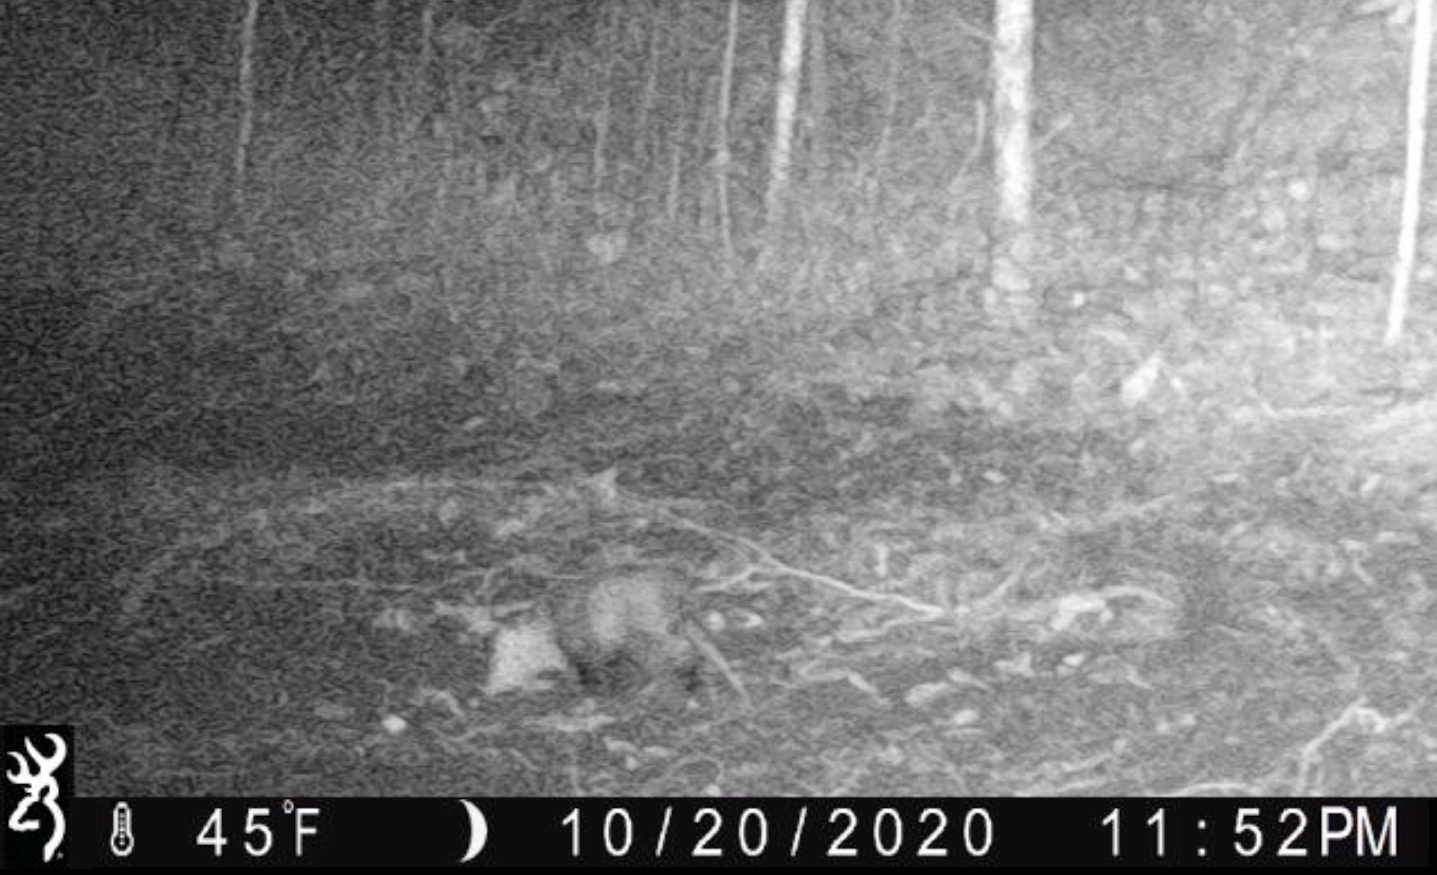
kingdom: Animalia
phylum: Chordata
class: Mammalia
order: Didelphimorphia
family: Didelphidae
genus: Didelphis
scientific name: Didelphis virginiana
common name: Virginia opossum
